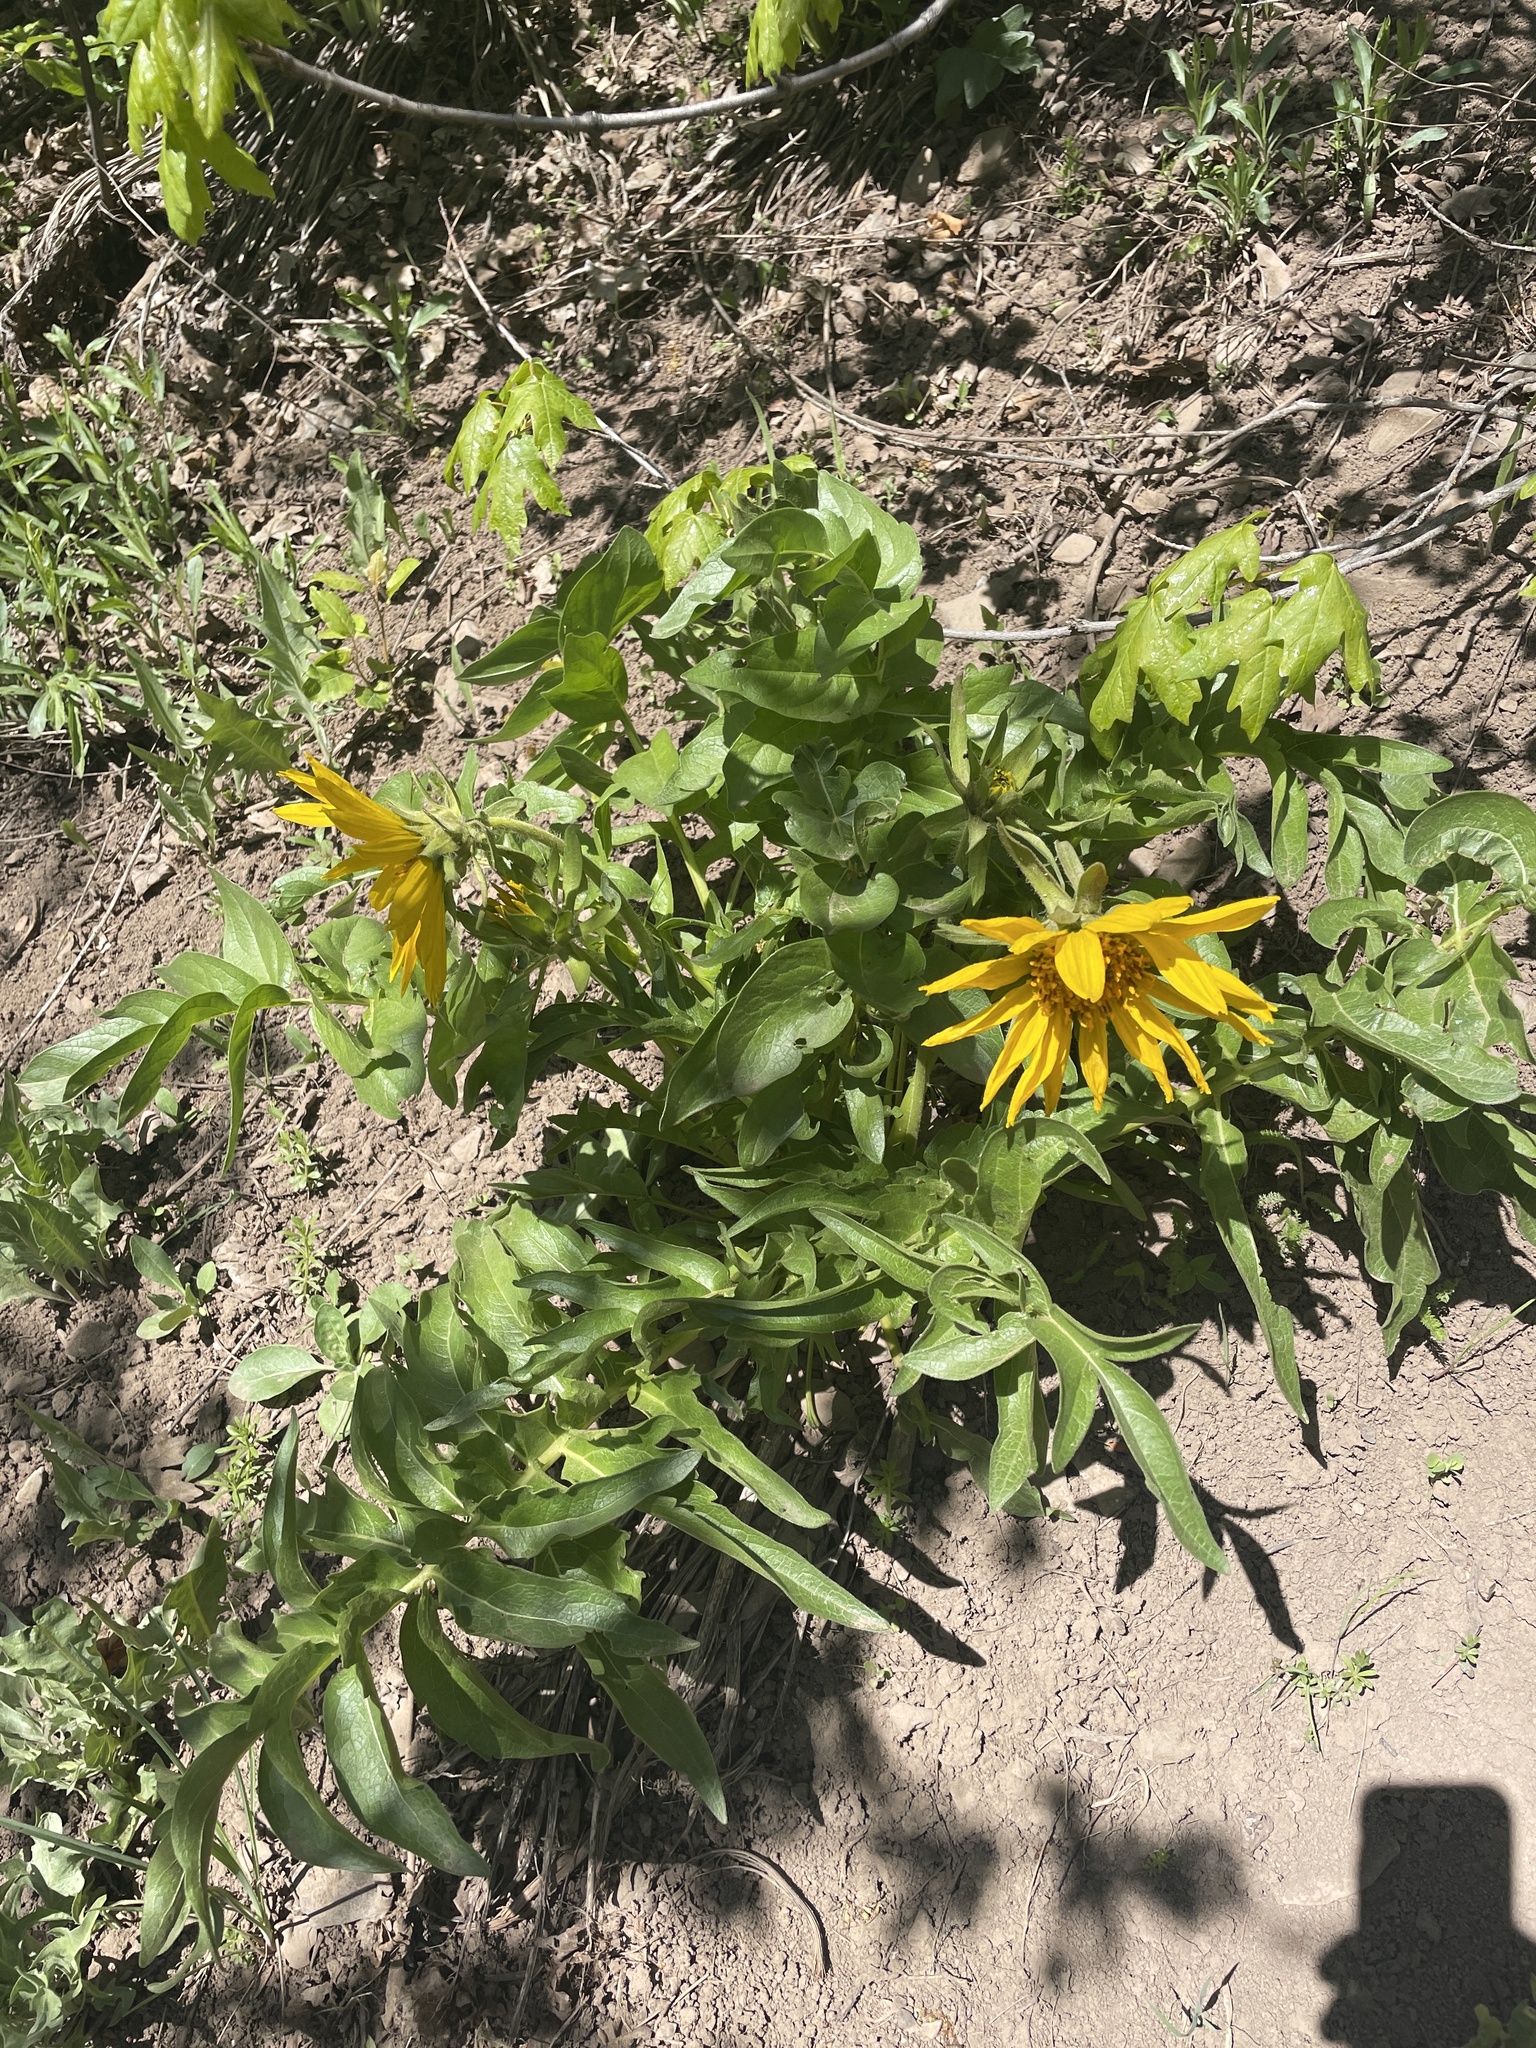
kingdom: Plantae
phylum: Tracheophyta
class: Magnoliopsida
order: Asterales
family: Asteraceae
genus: Balsamorhiza
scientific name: Balsamorhiza macrophylla
